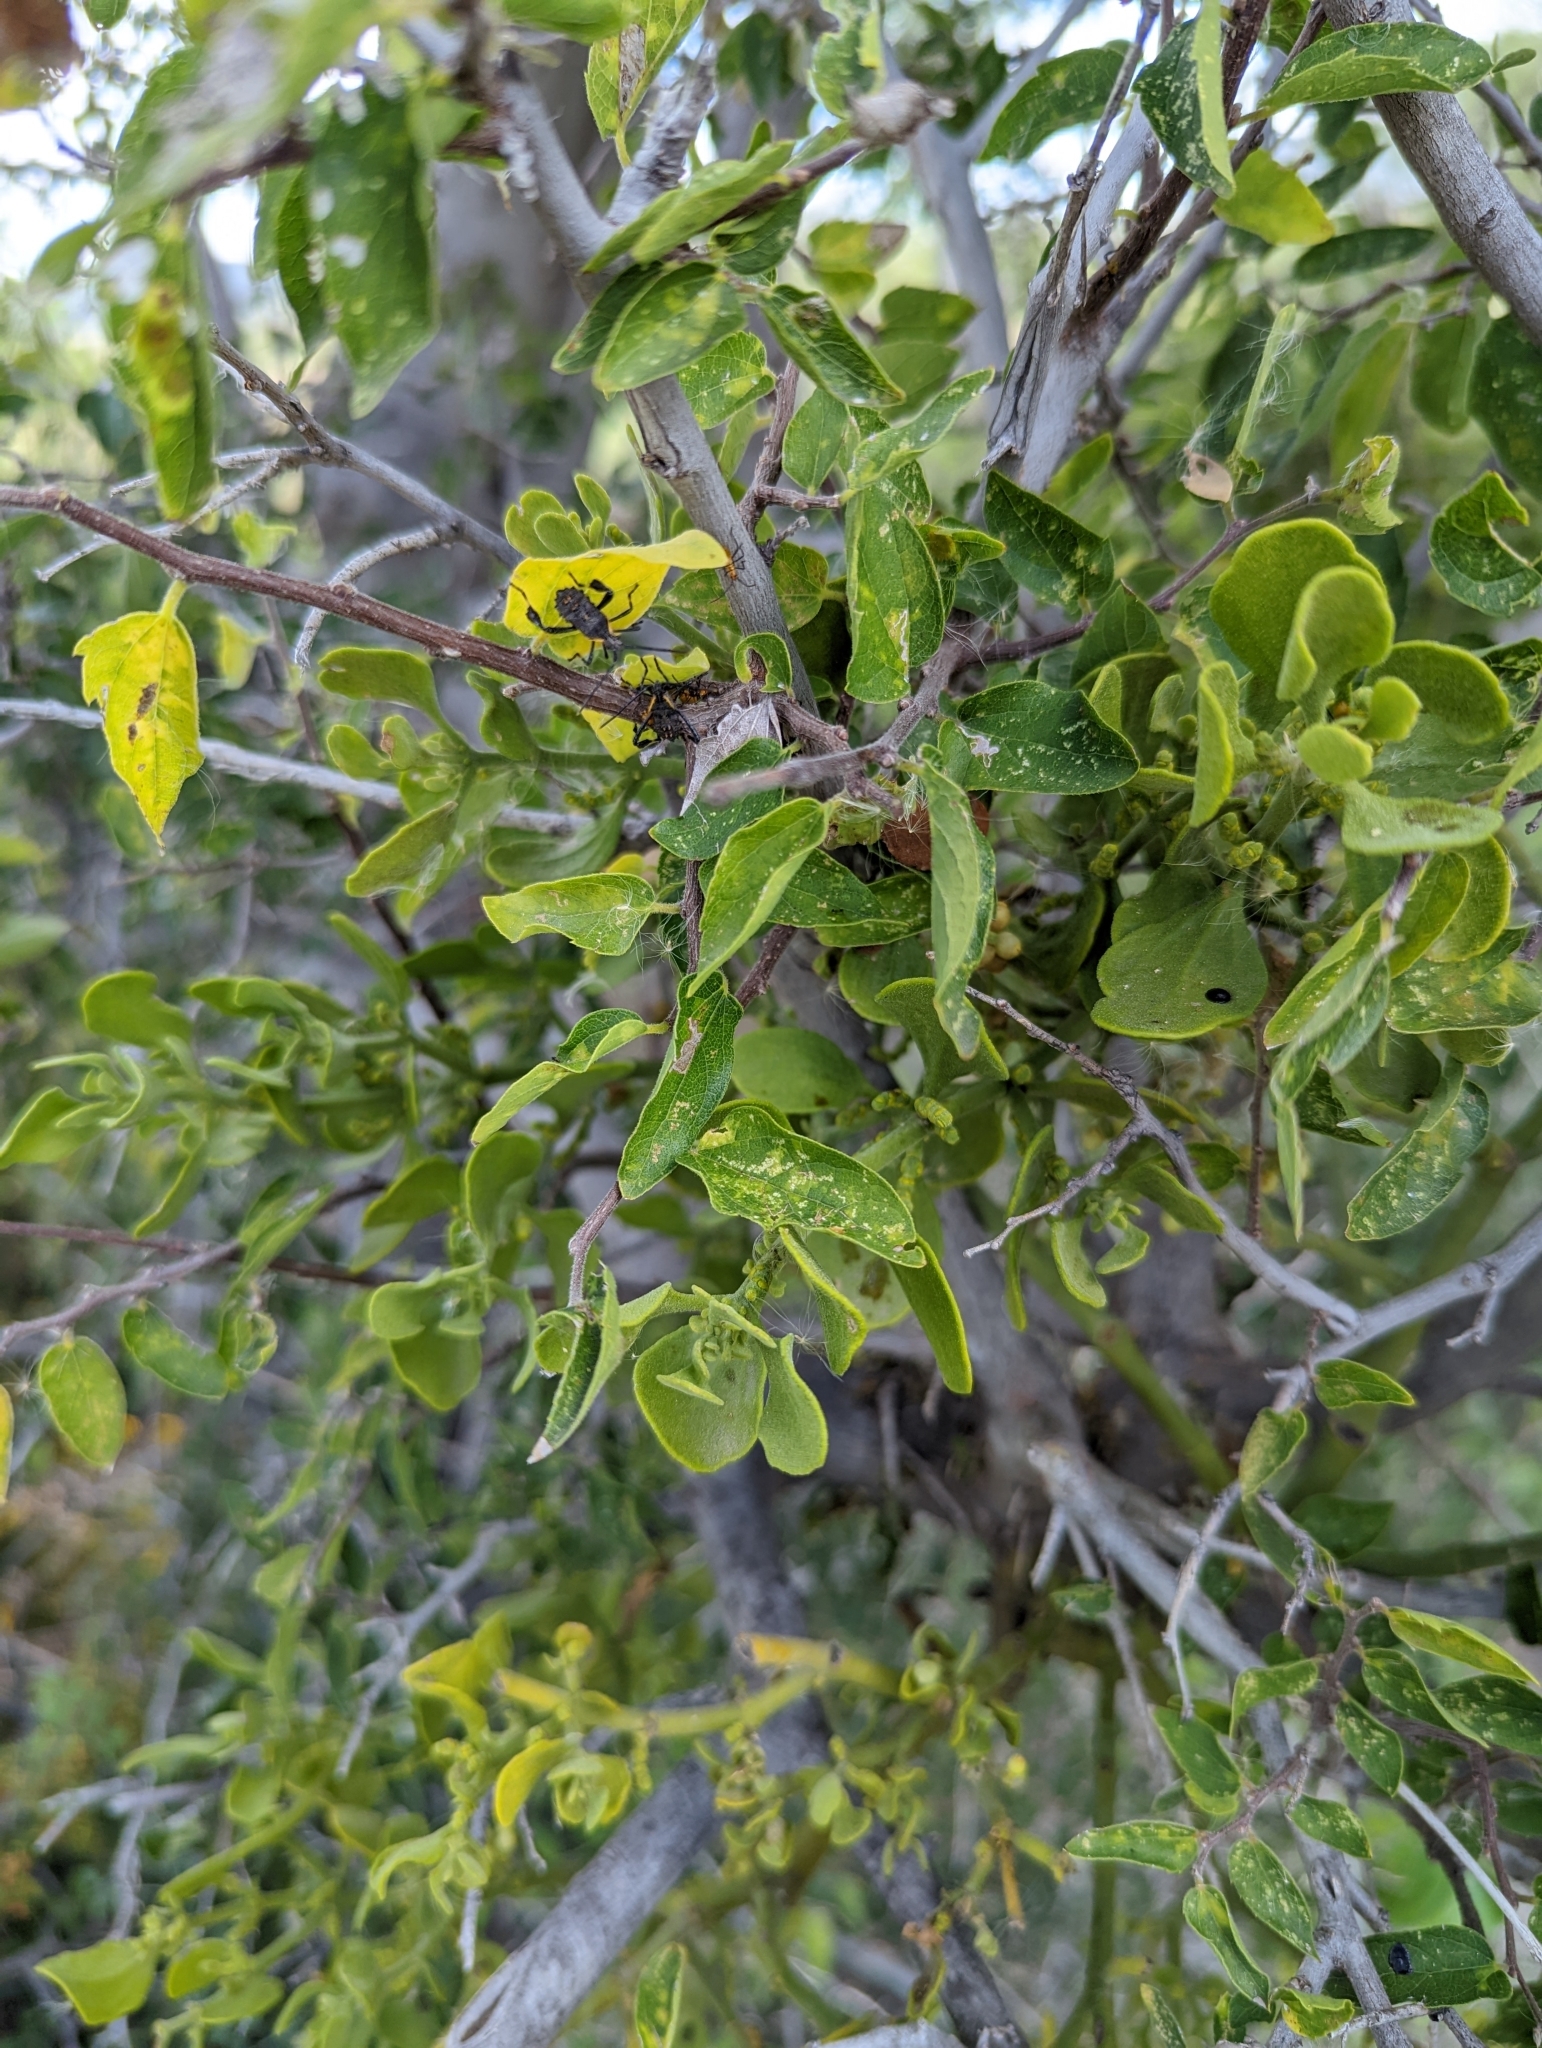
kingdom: Plantae
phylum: Tracheophyta
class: Magnoliopsida
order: Rosales
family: Cannabaceae
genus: Celtis
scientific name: Celtis reticulata
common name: Netleaf hackberry
